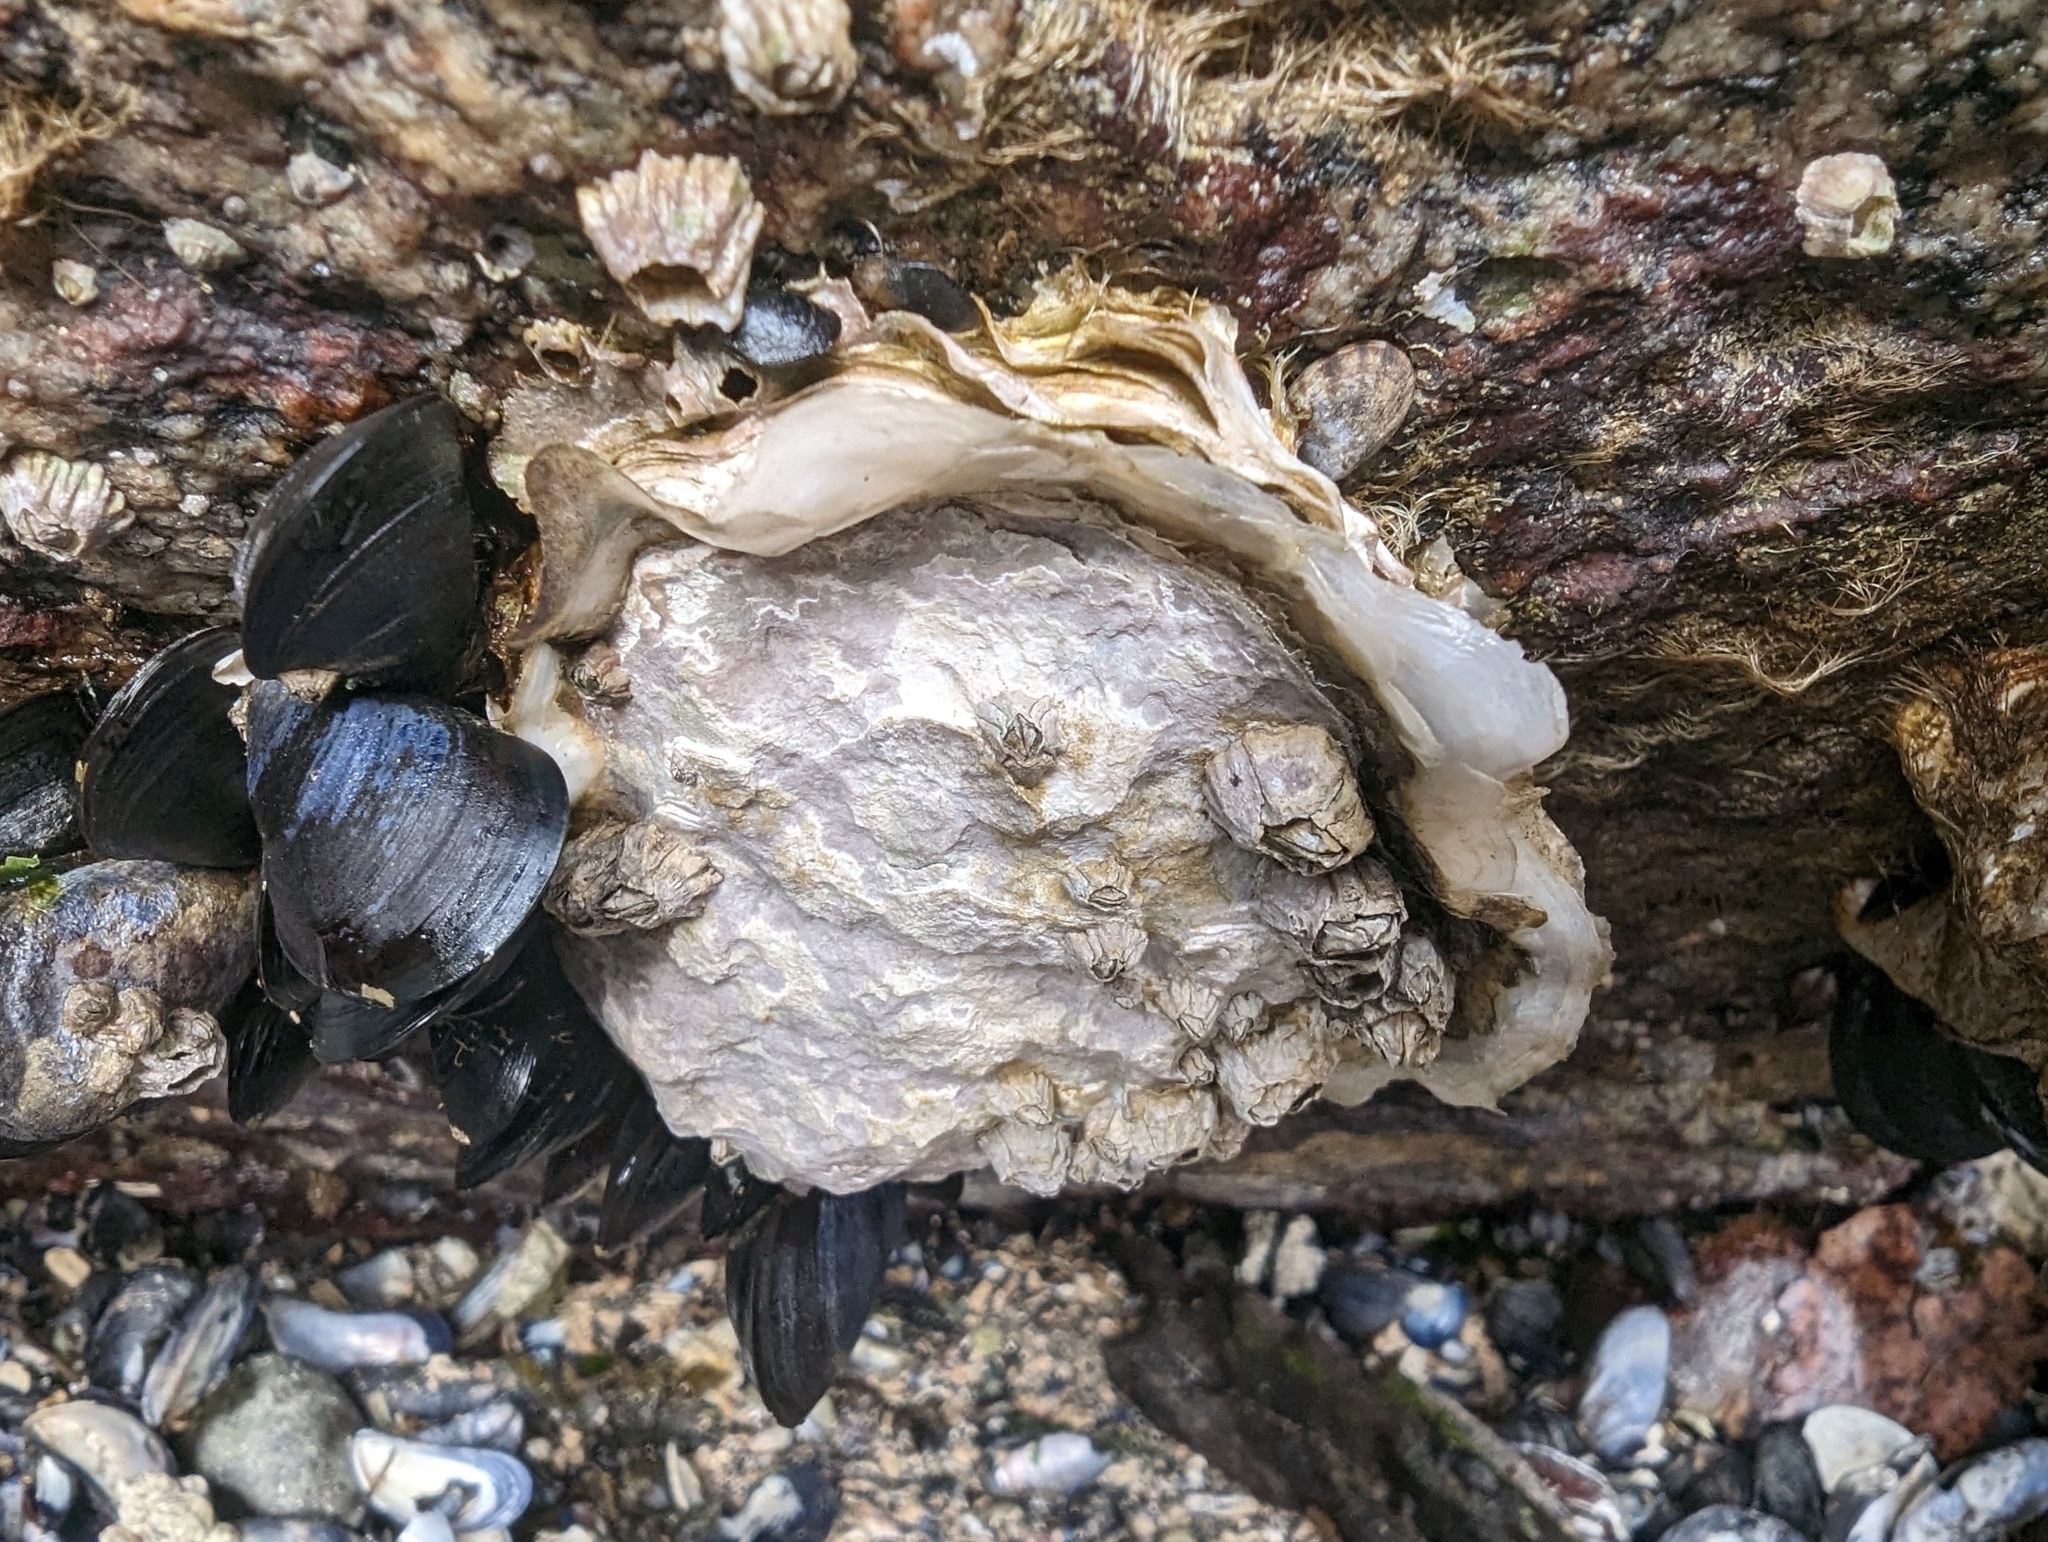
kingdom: Animalia
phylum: Mollusca
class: Bivalvia
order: Ostreida
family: Ostreidae
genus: Magallana
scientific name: Magallana gigas
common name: Pacific oyster
